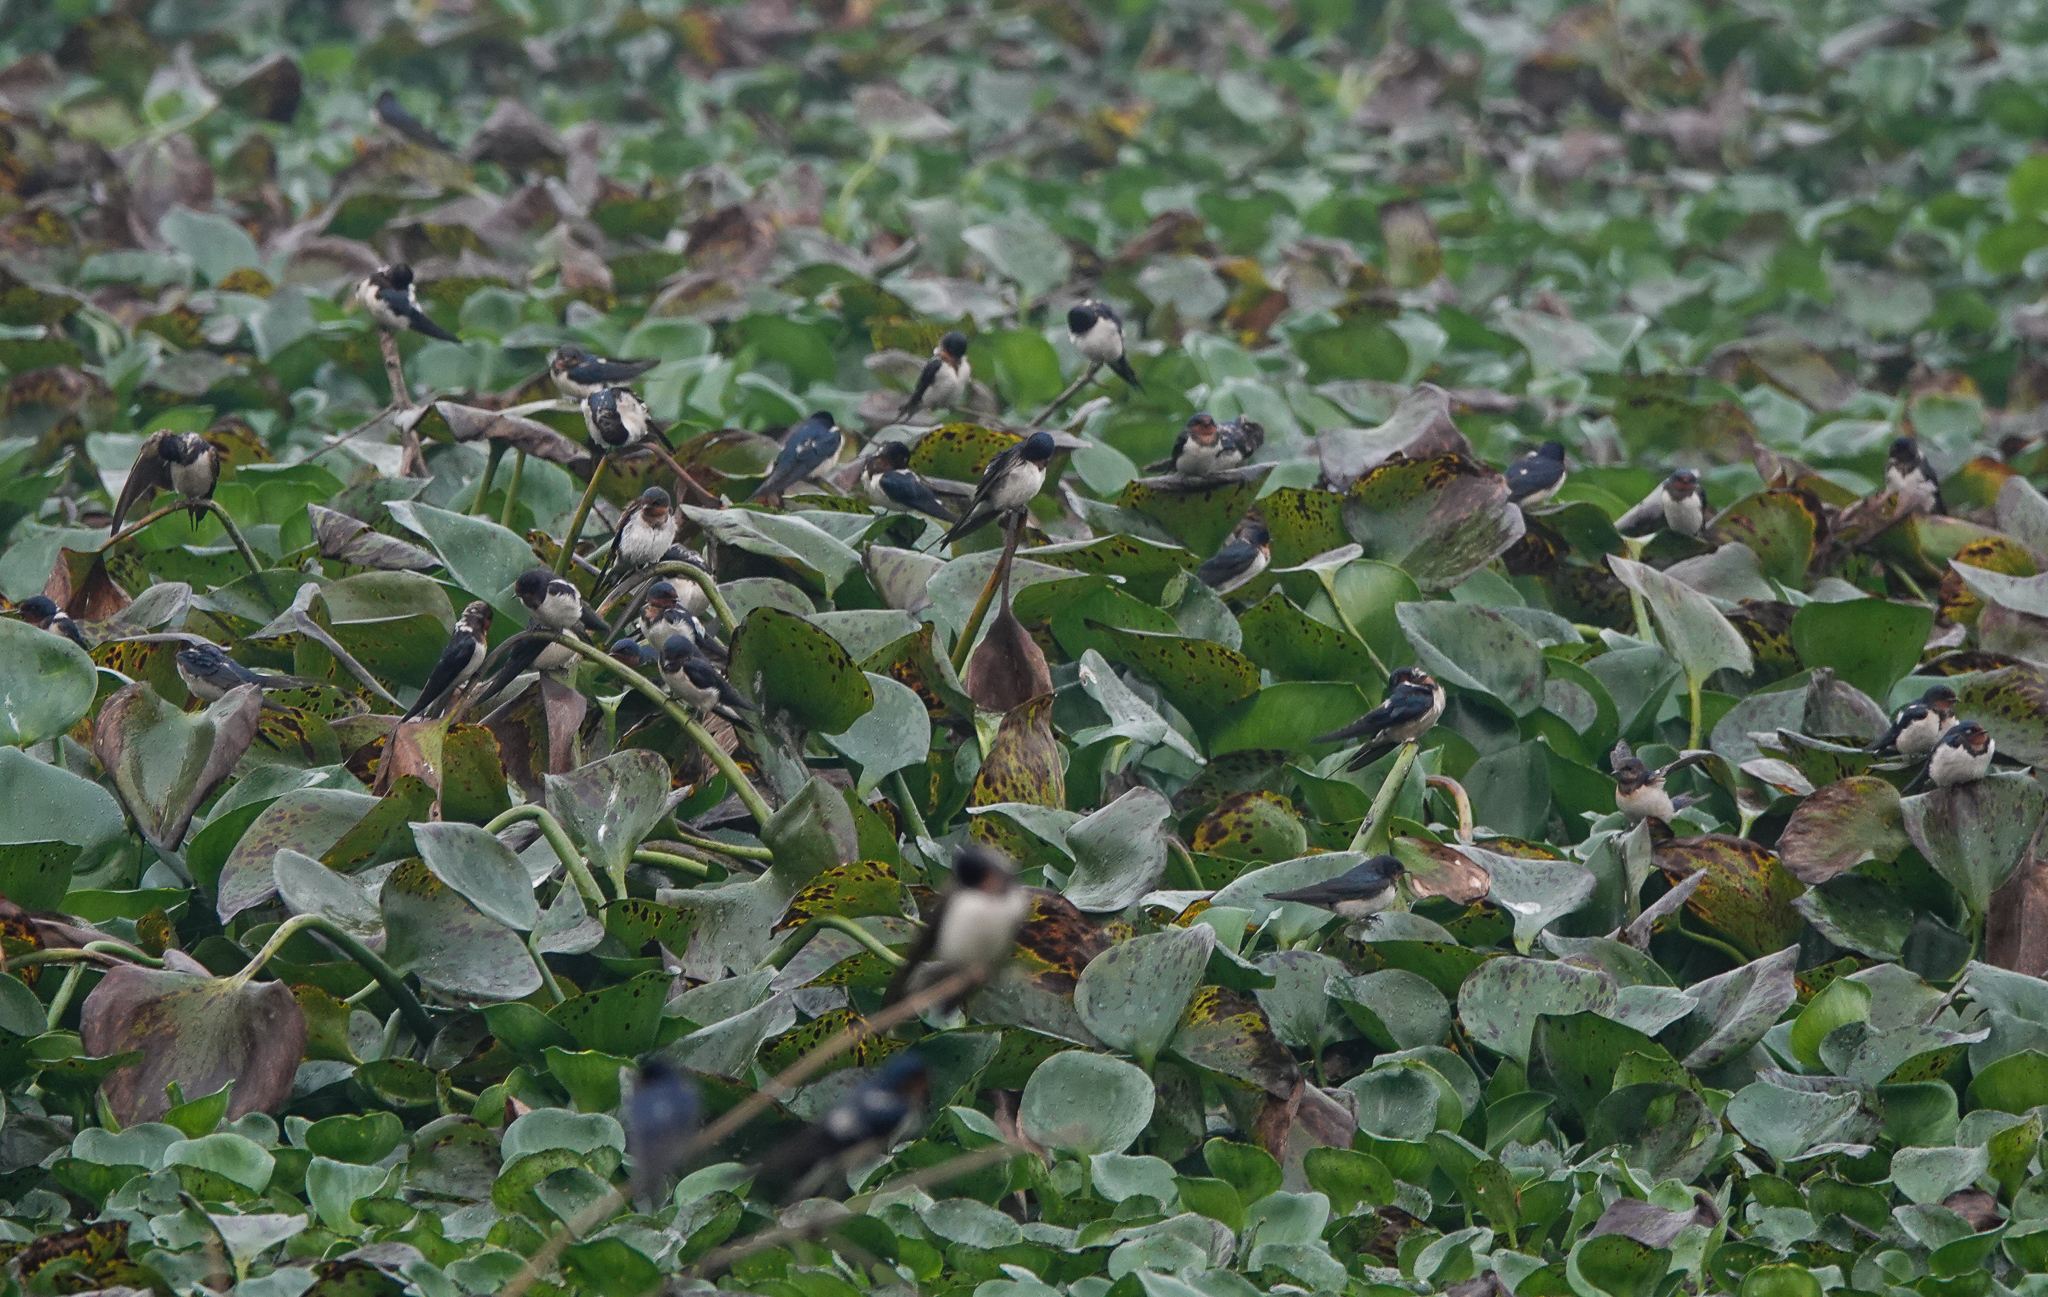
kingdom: Animalia
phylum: Chordata
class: Aves
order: Passeriformes
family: Hirundinidae
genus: Hirundo
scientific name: Hirundo rustica
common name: Barn swallow
